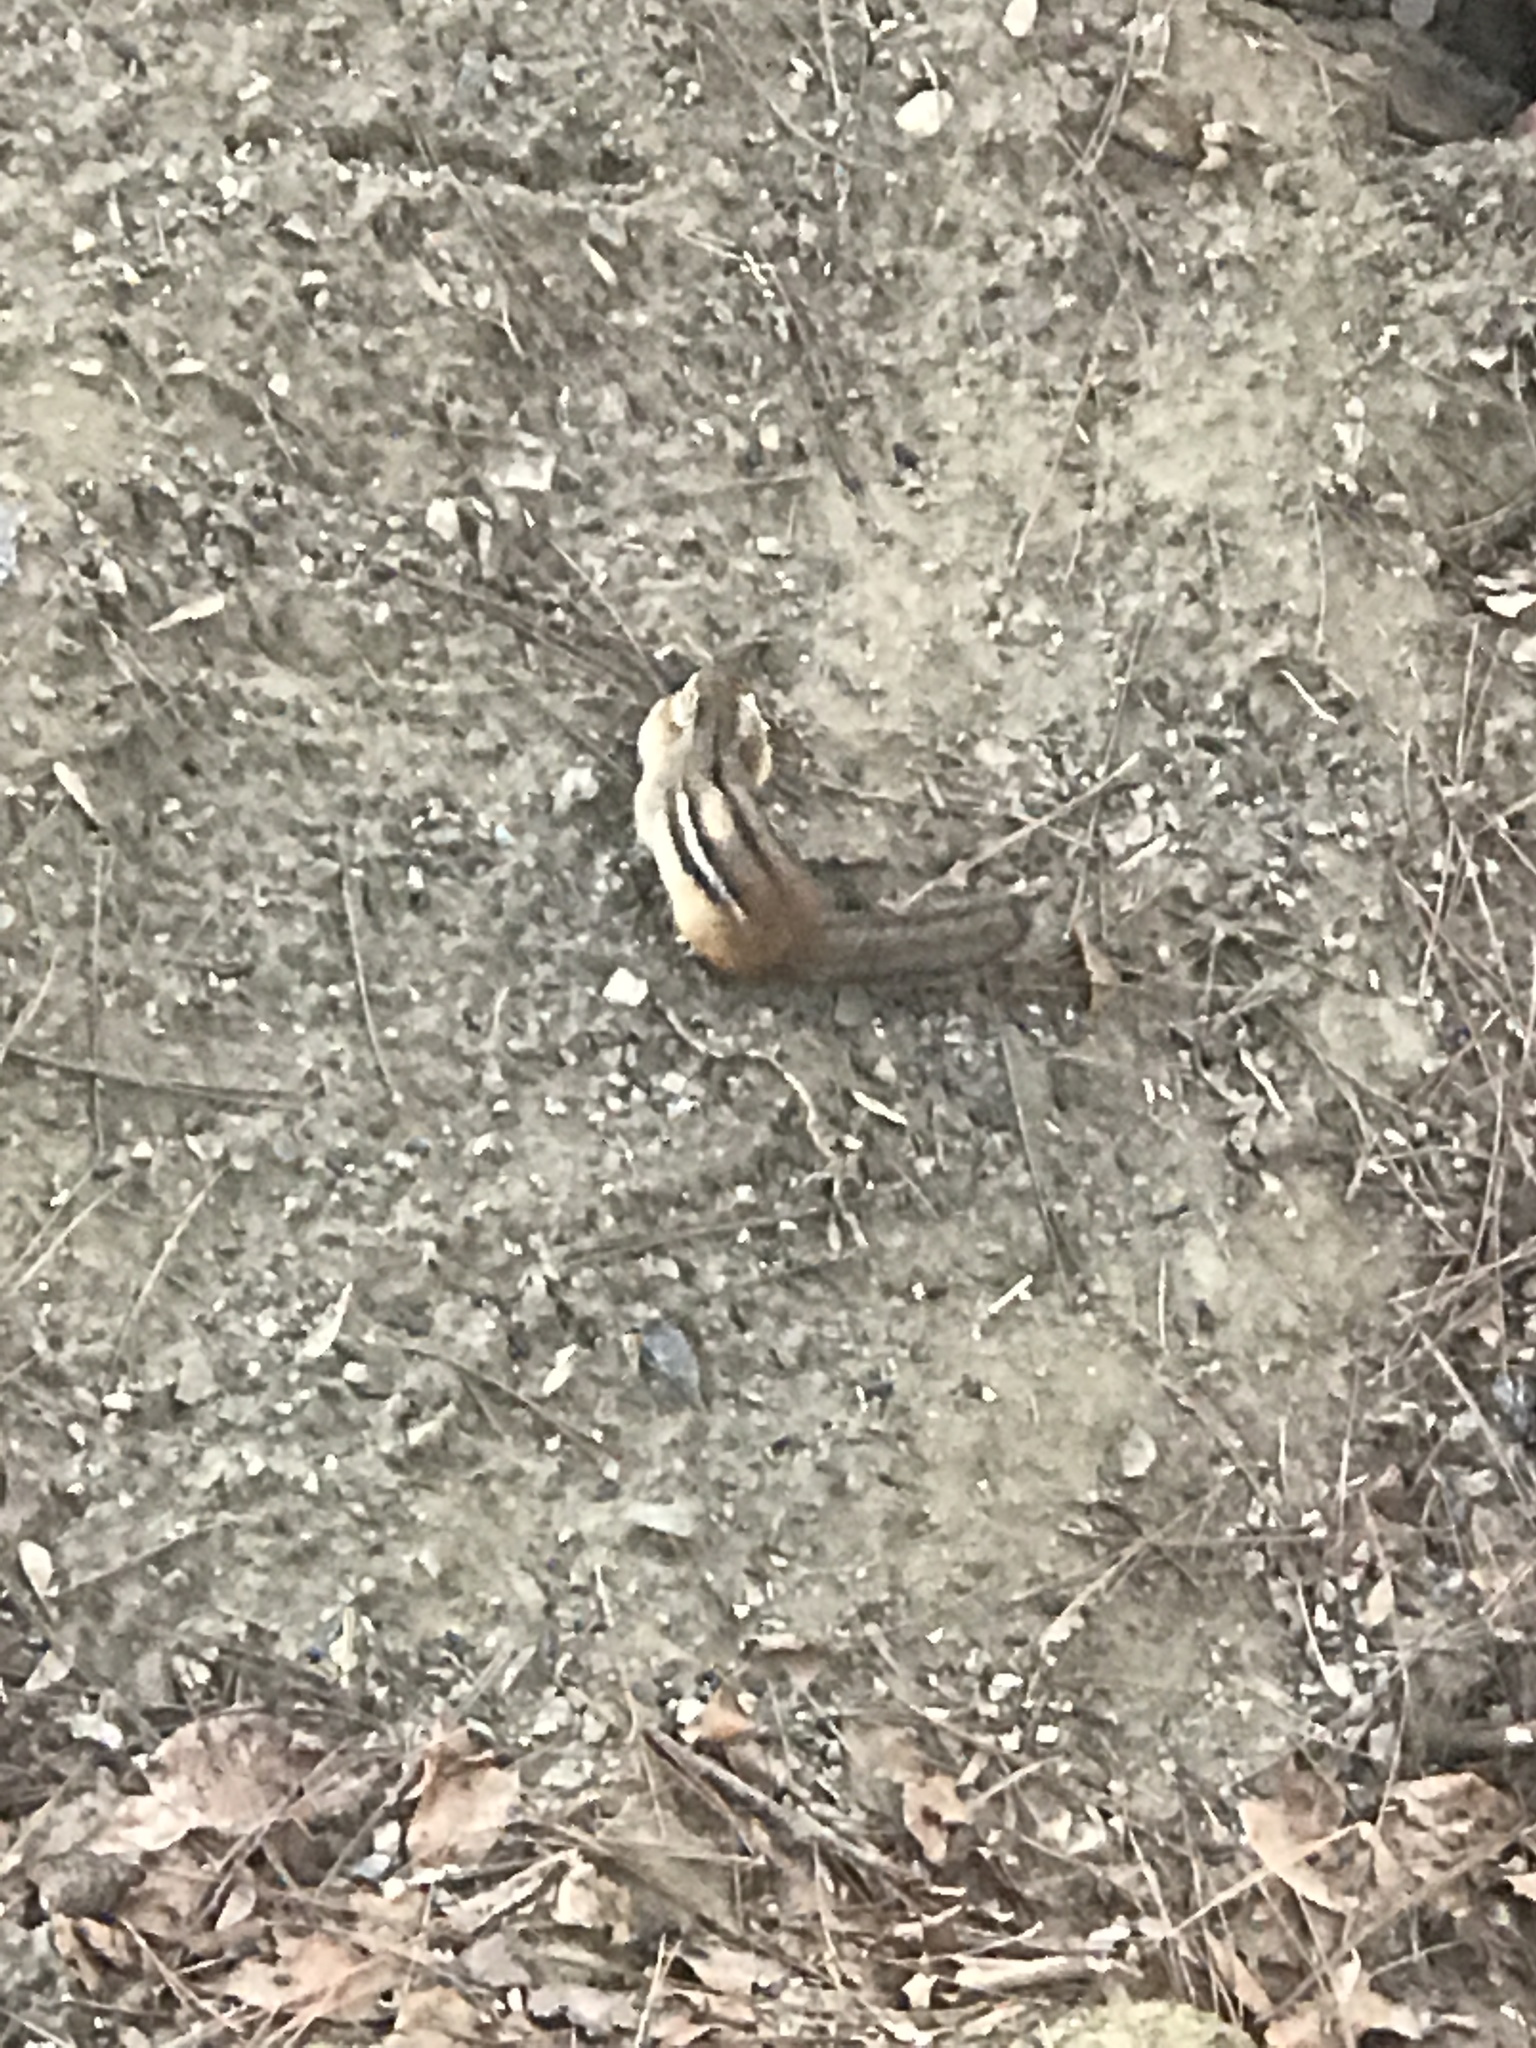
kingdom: Animalia
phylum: Chordata
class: Mammalia
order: Rodentia
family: Sciuridae
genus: Tamias
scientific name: Tamias striatus
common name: Eastern chipmunk
